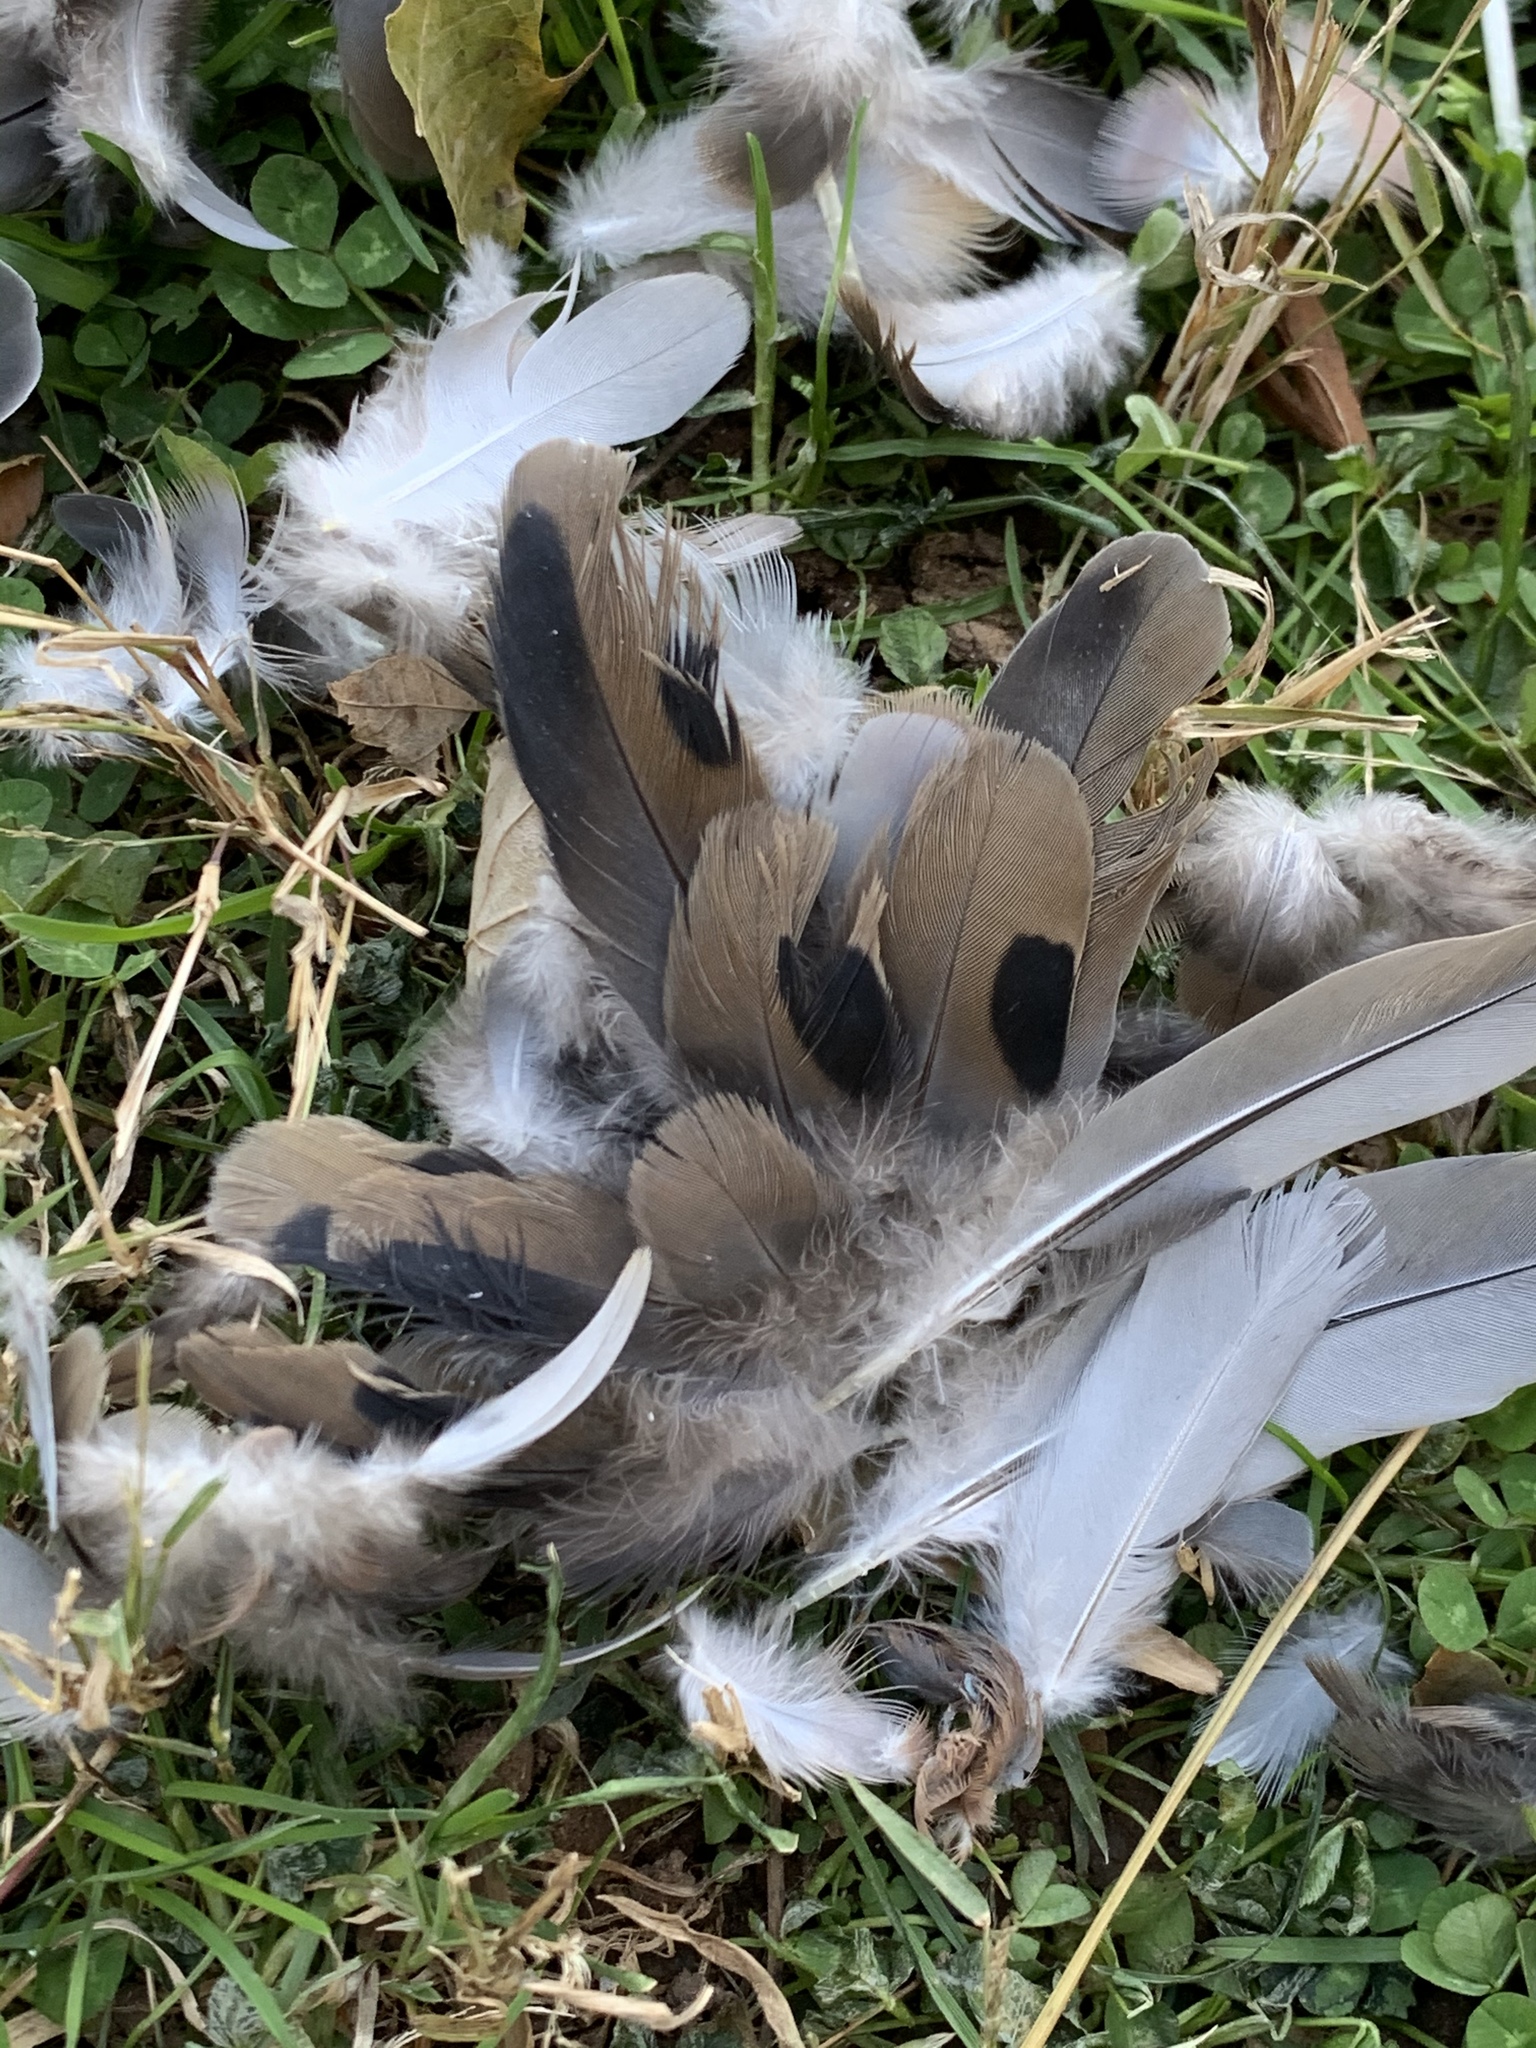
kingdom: Animalia
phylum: Chordata
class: Aves
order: Accipitriformes
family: Accipitridae
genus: Accipiter
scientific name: Accipiter cooperii
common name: Cooper's hawk
